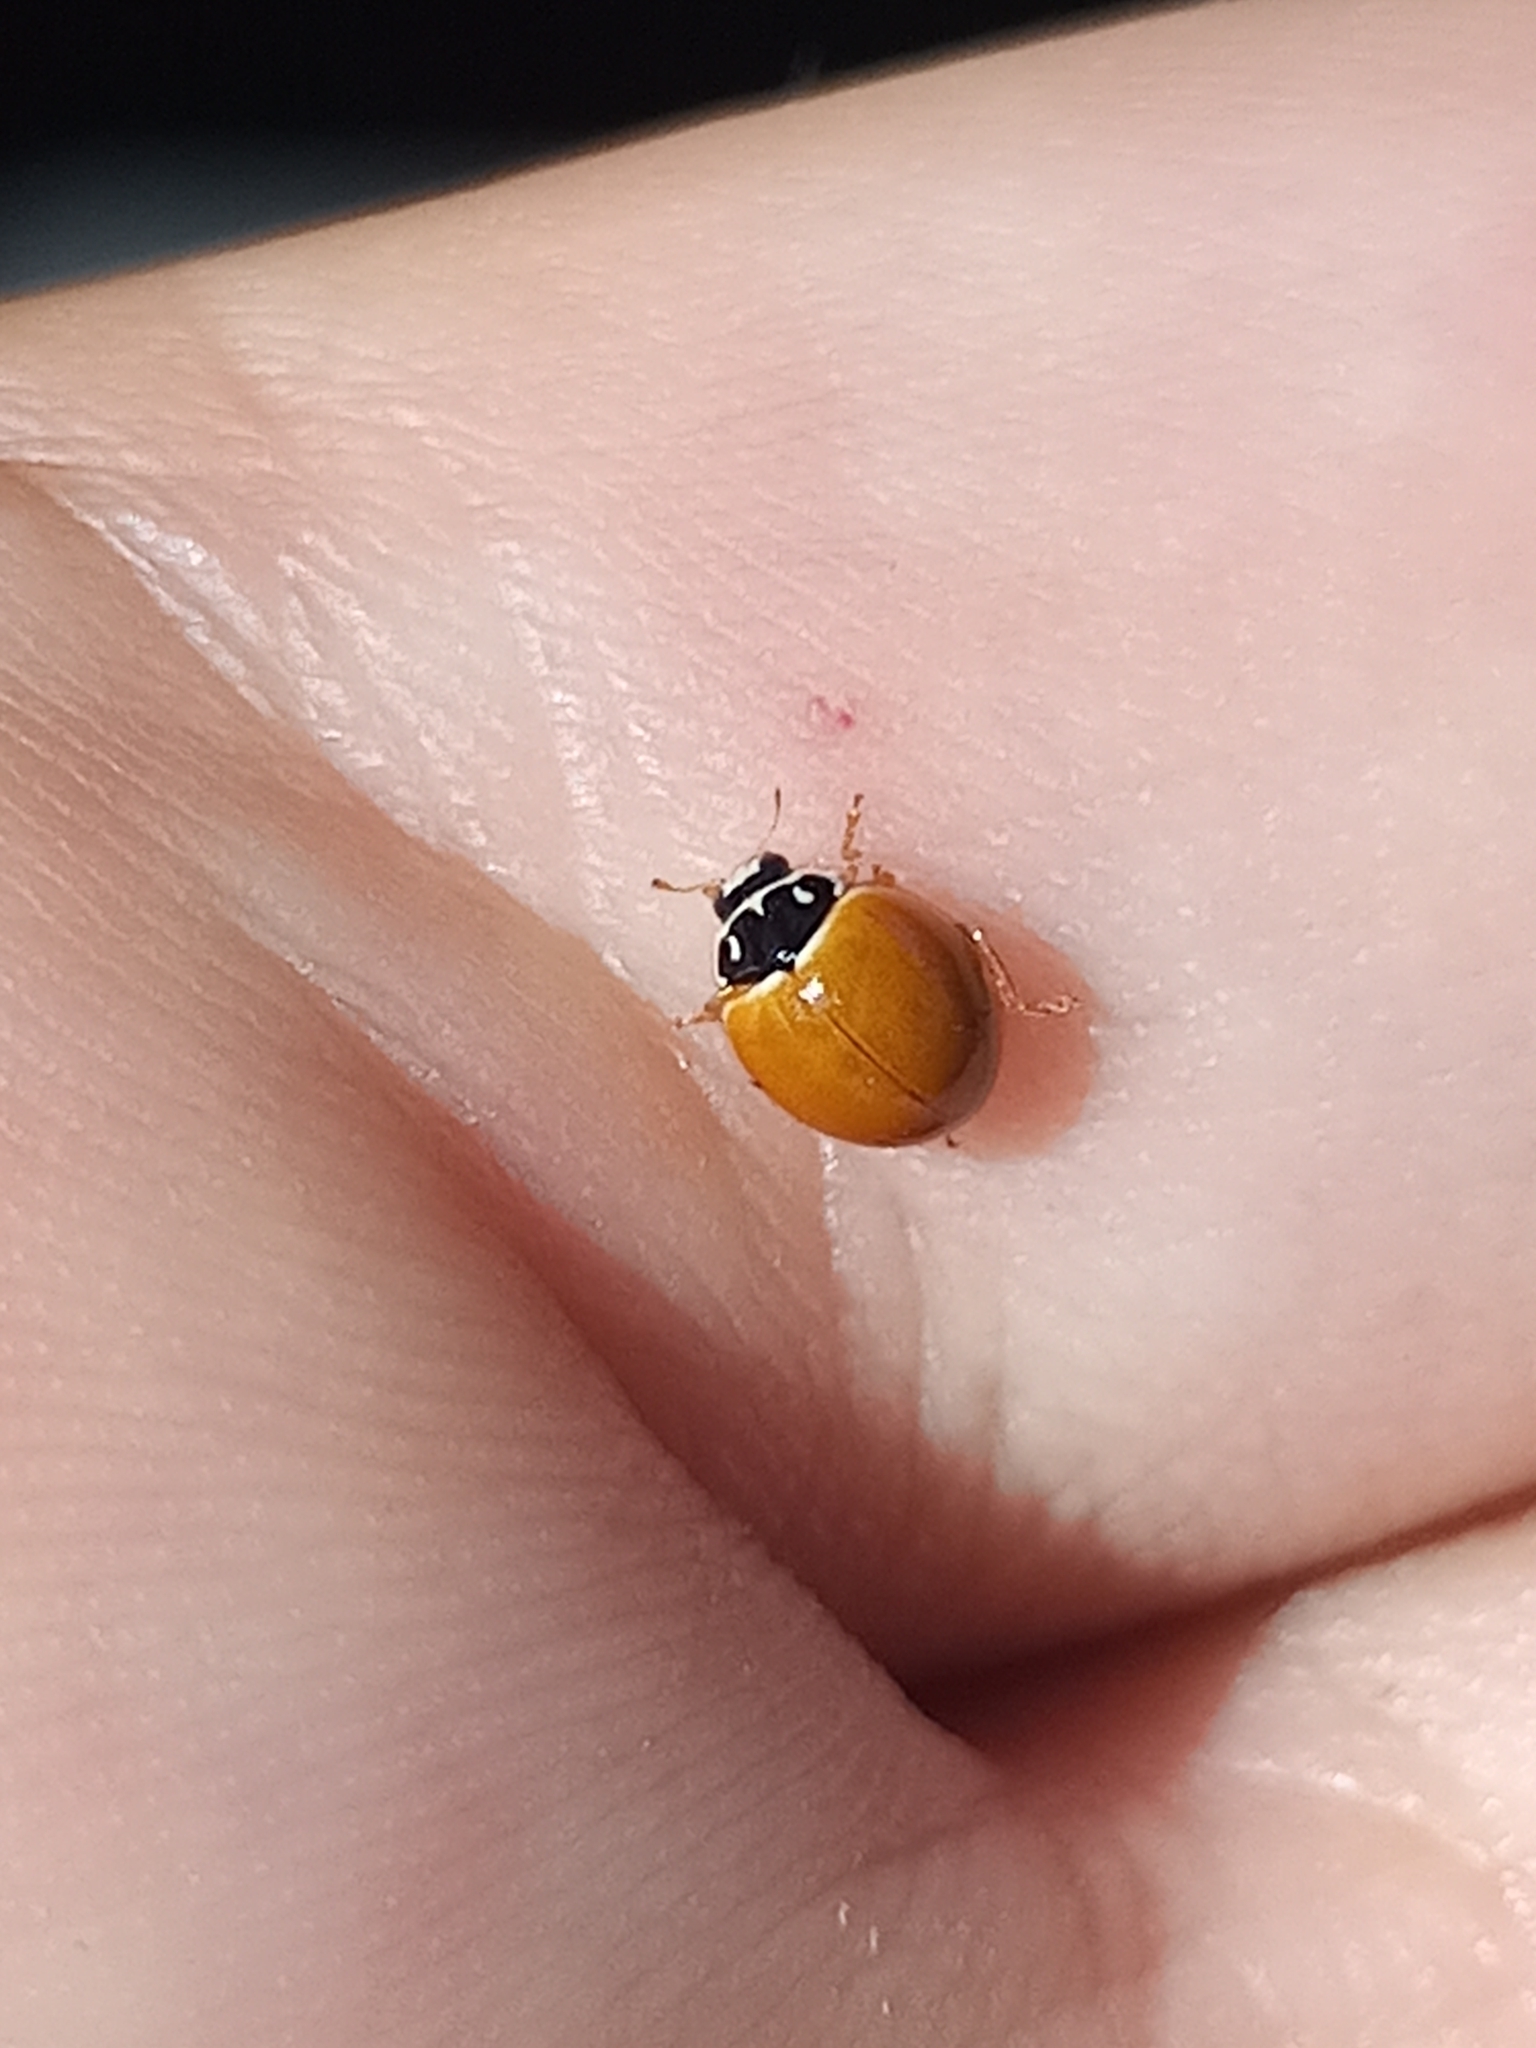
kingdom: Animalia
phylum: Arthropoda
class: Insecta
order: Coleoptera
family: Coccinellidae
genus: Cycloneda
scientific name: Cycloneda munda
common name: Polished lady beetle
